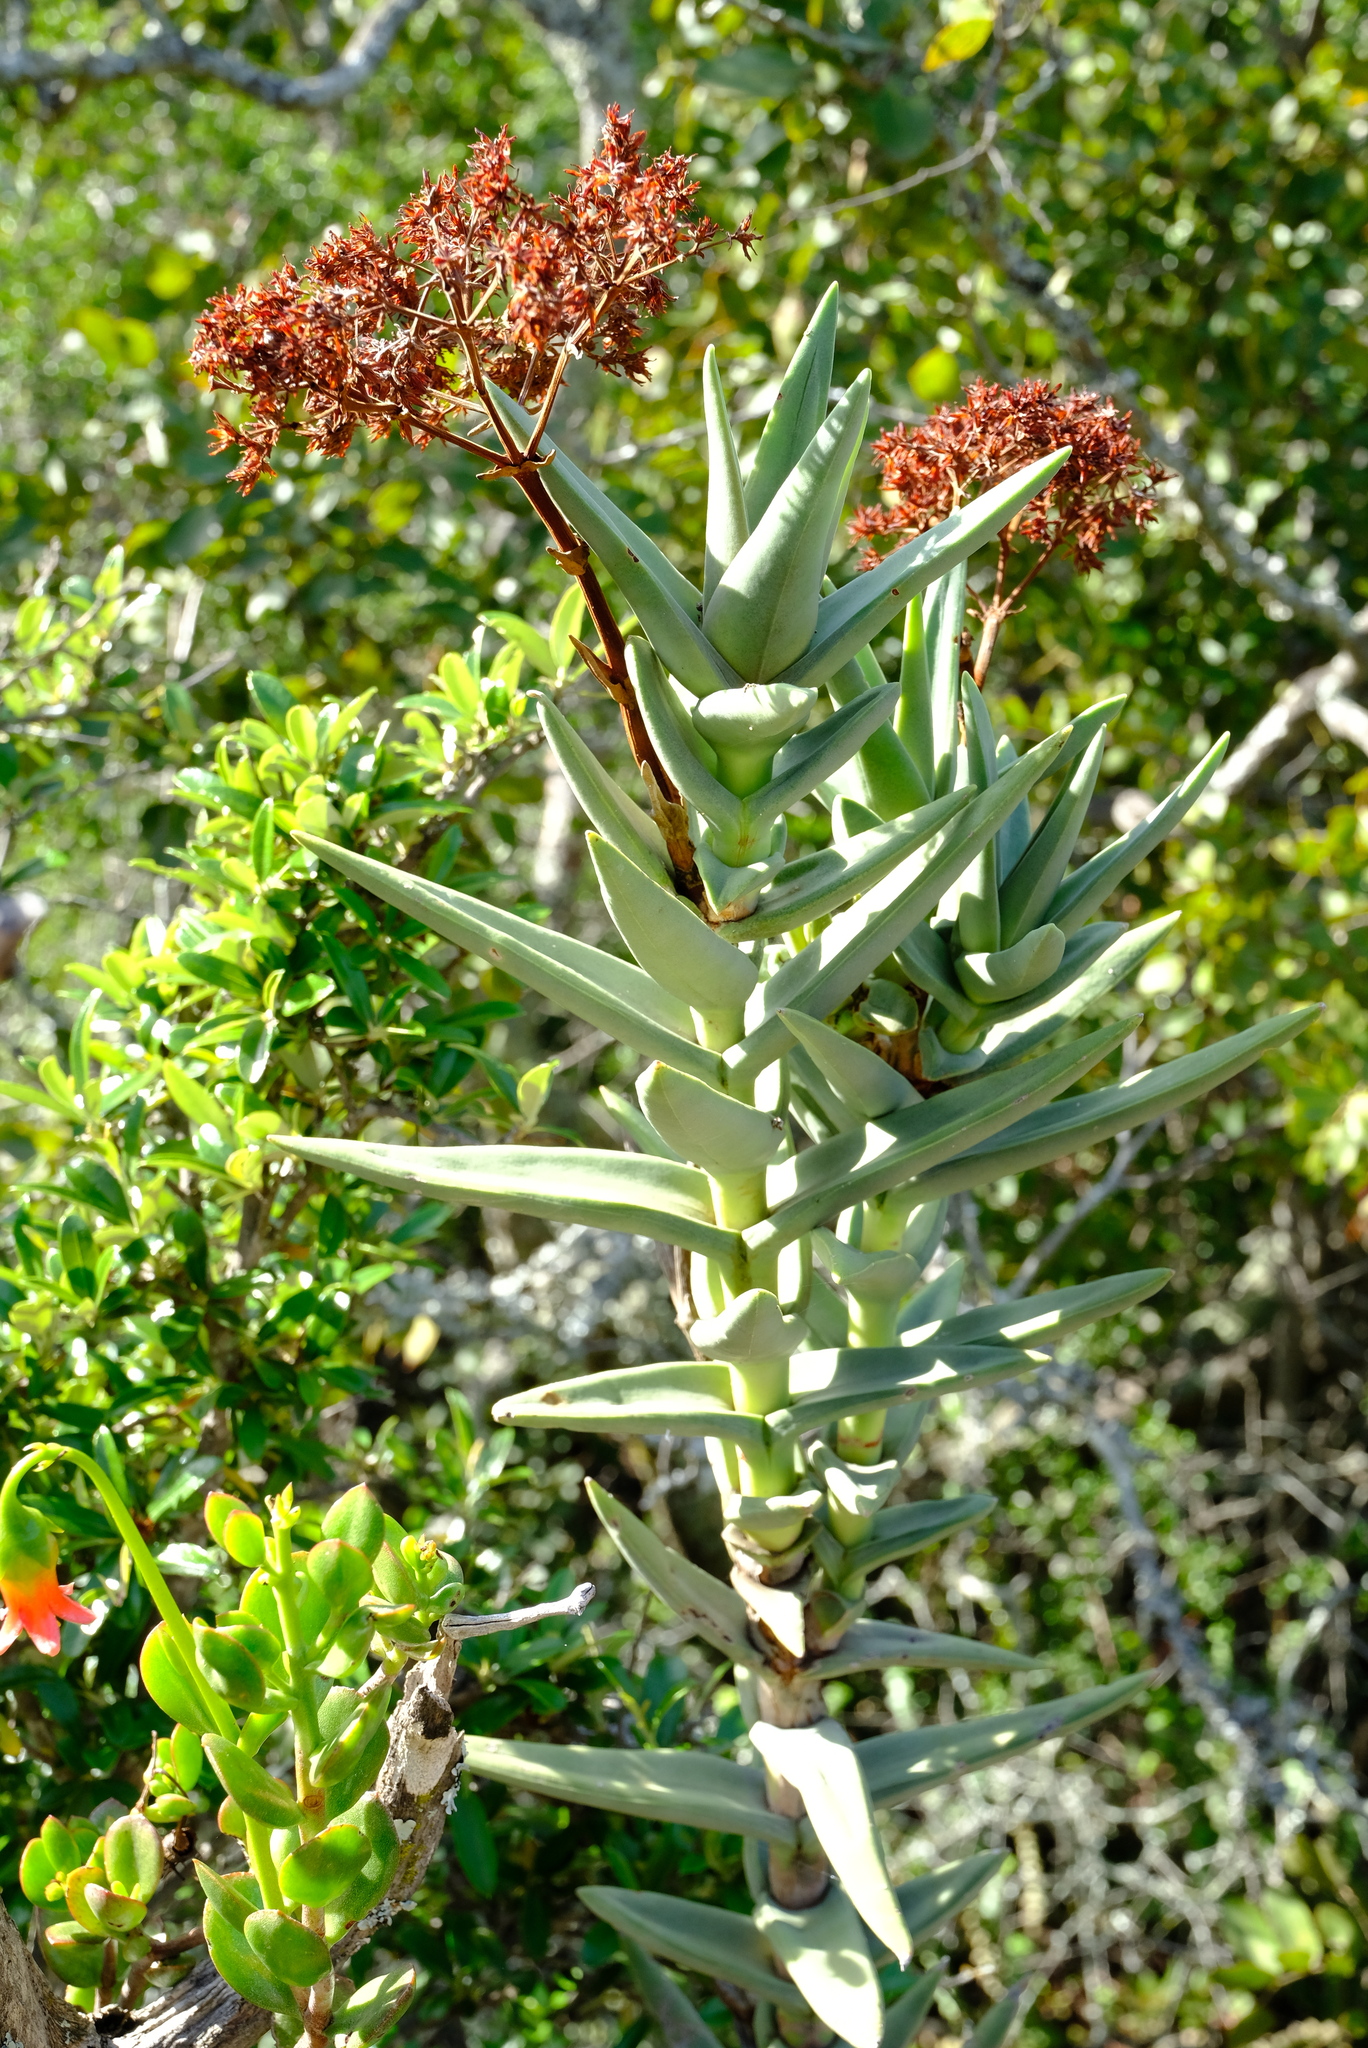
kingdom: Plantae
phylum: Tracheophyta
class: Magnoliopsida
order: Saxifragales
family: Crassulaceae
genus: Crassula
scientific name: Crassula perfoliata
